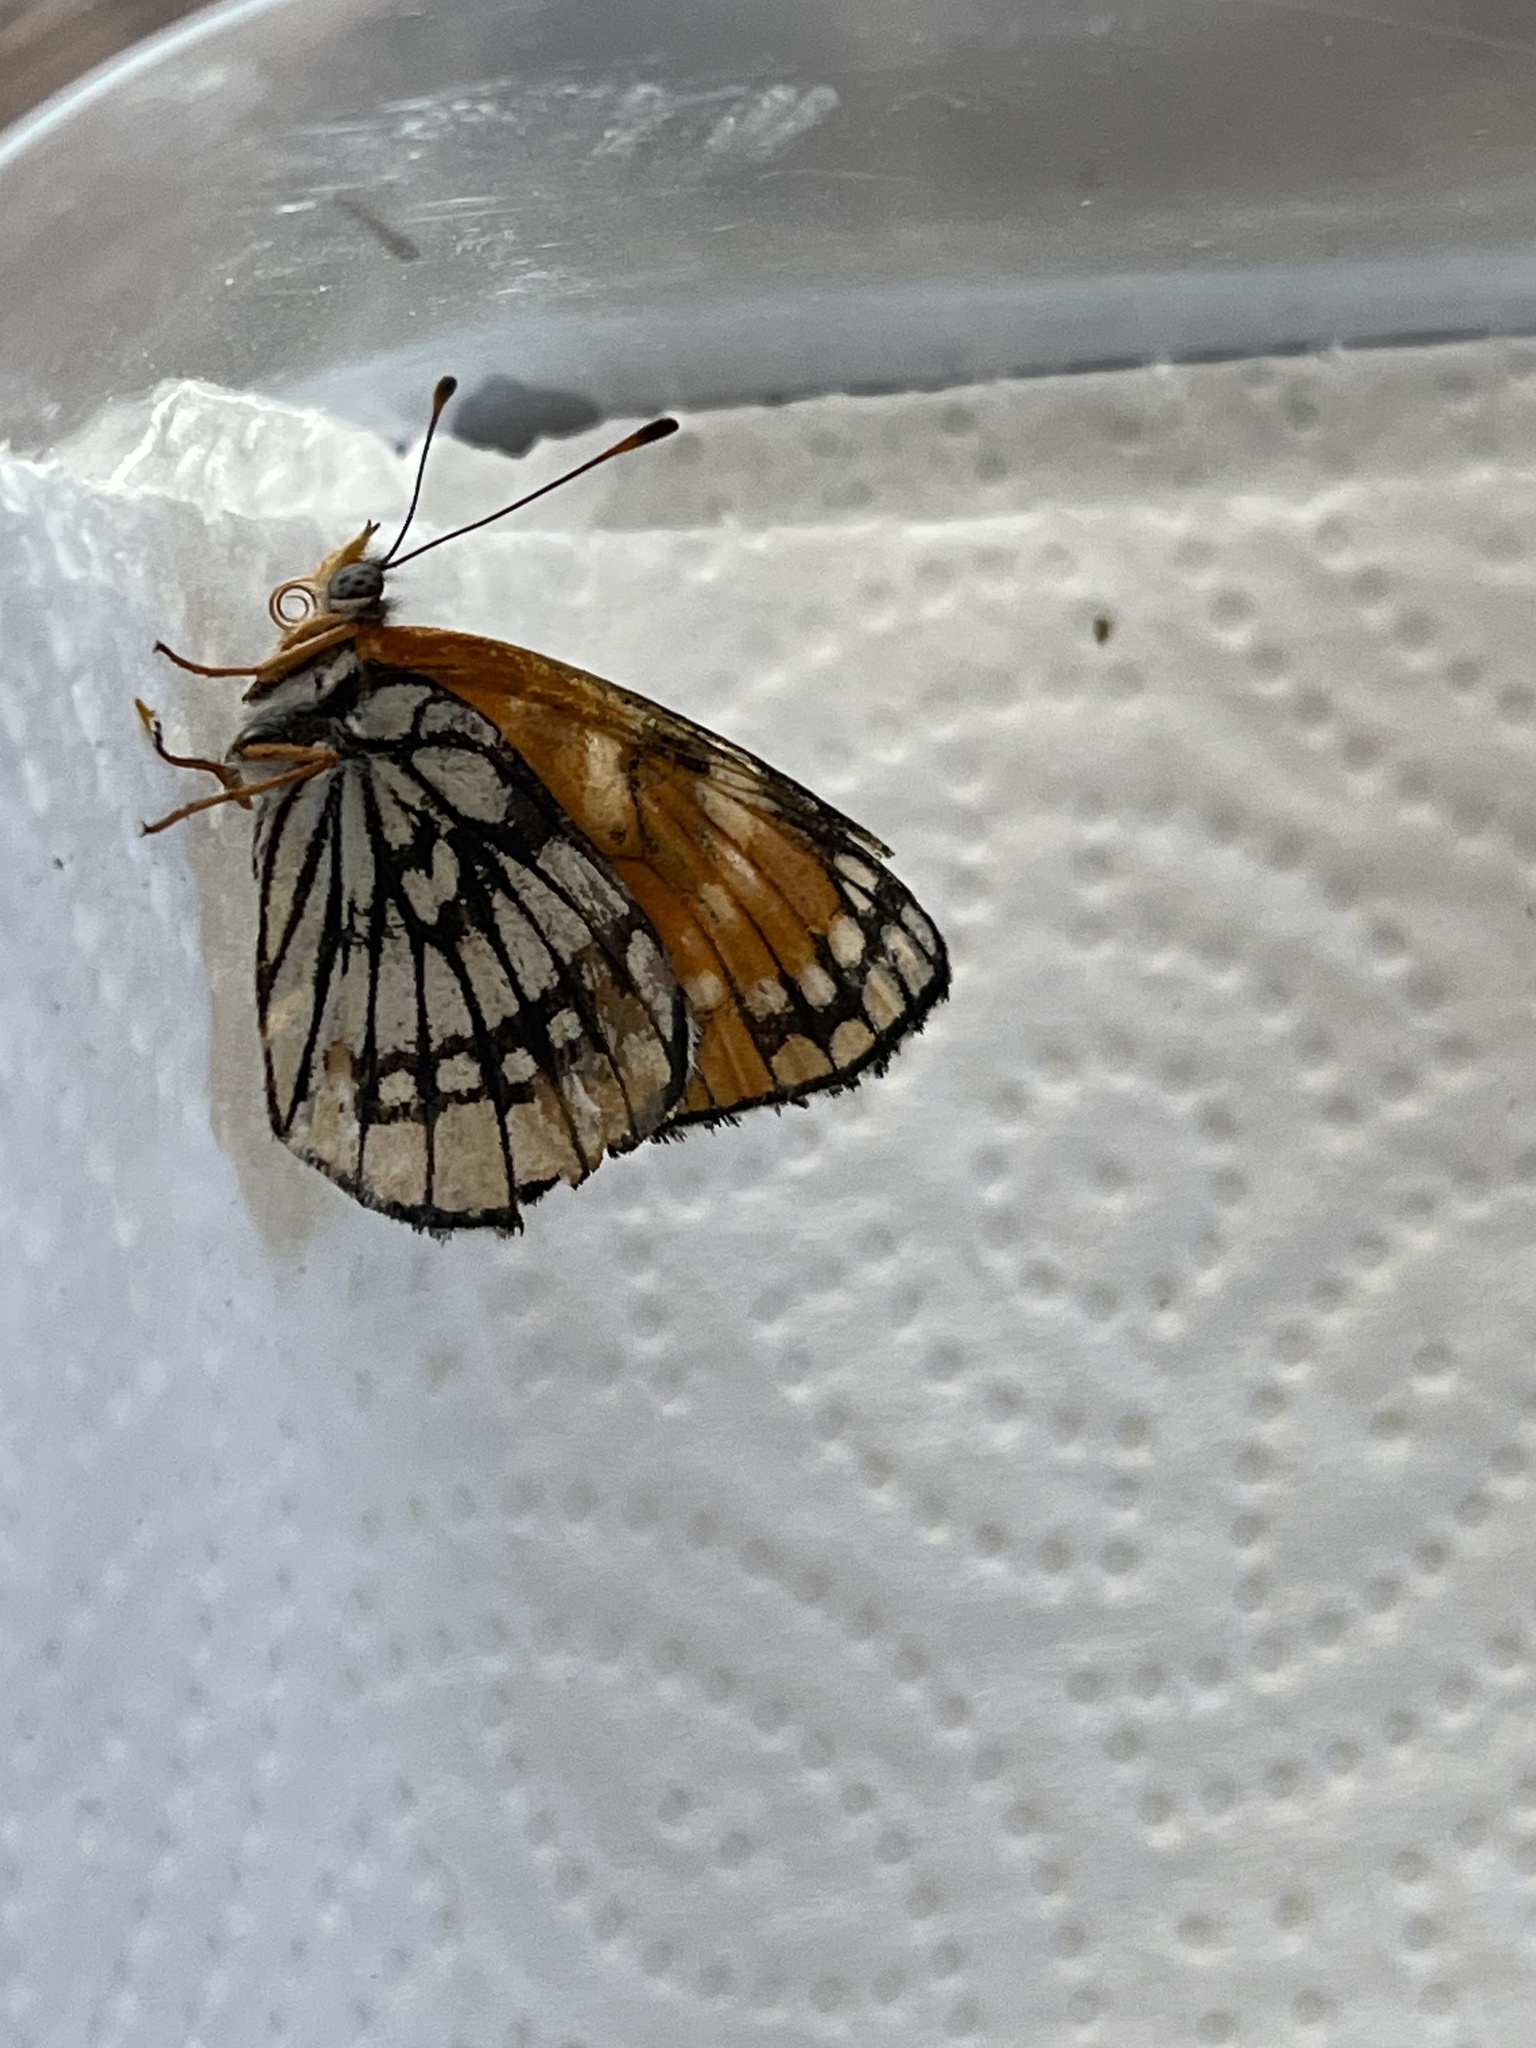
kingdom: Animalia
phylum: Arthropoda
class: Insecta
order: Lepidoptera
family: Nymphalidae
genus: Thessalia
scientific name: Thessalia leanira
